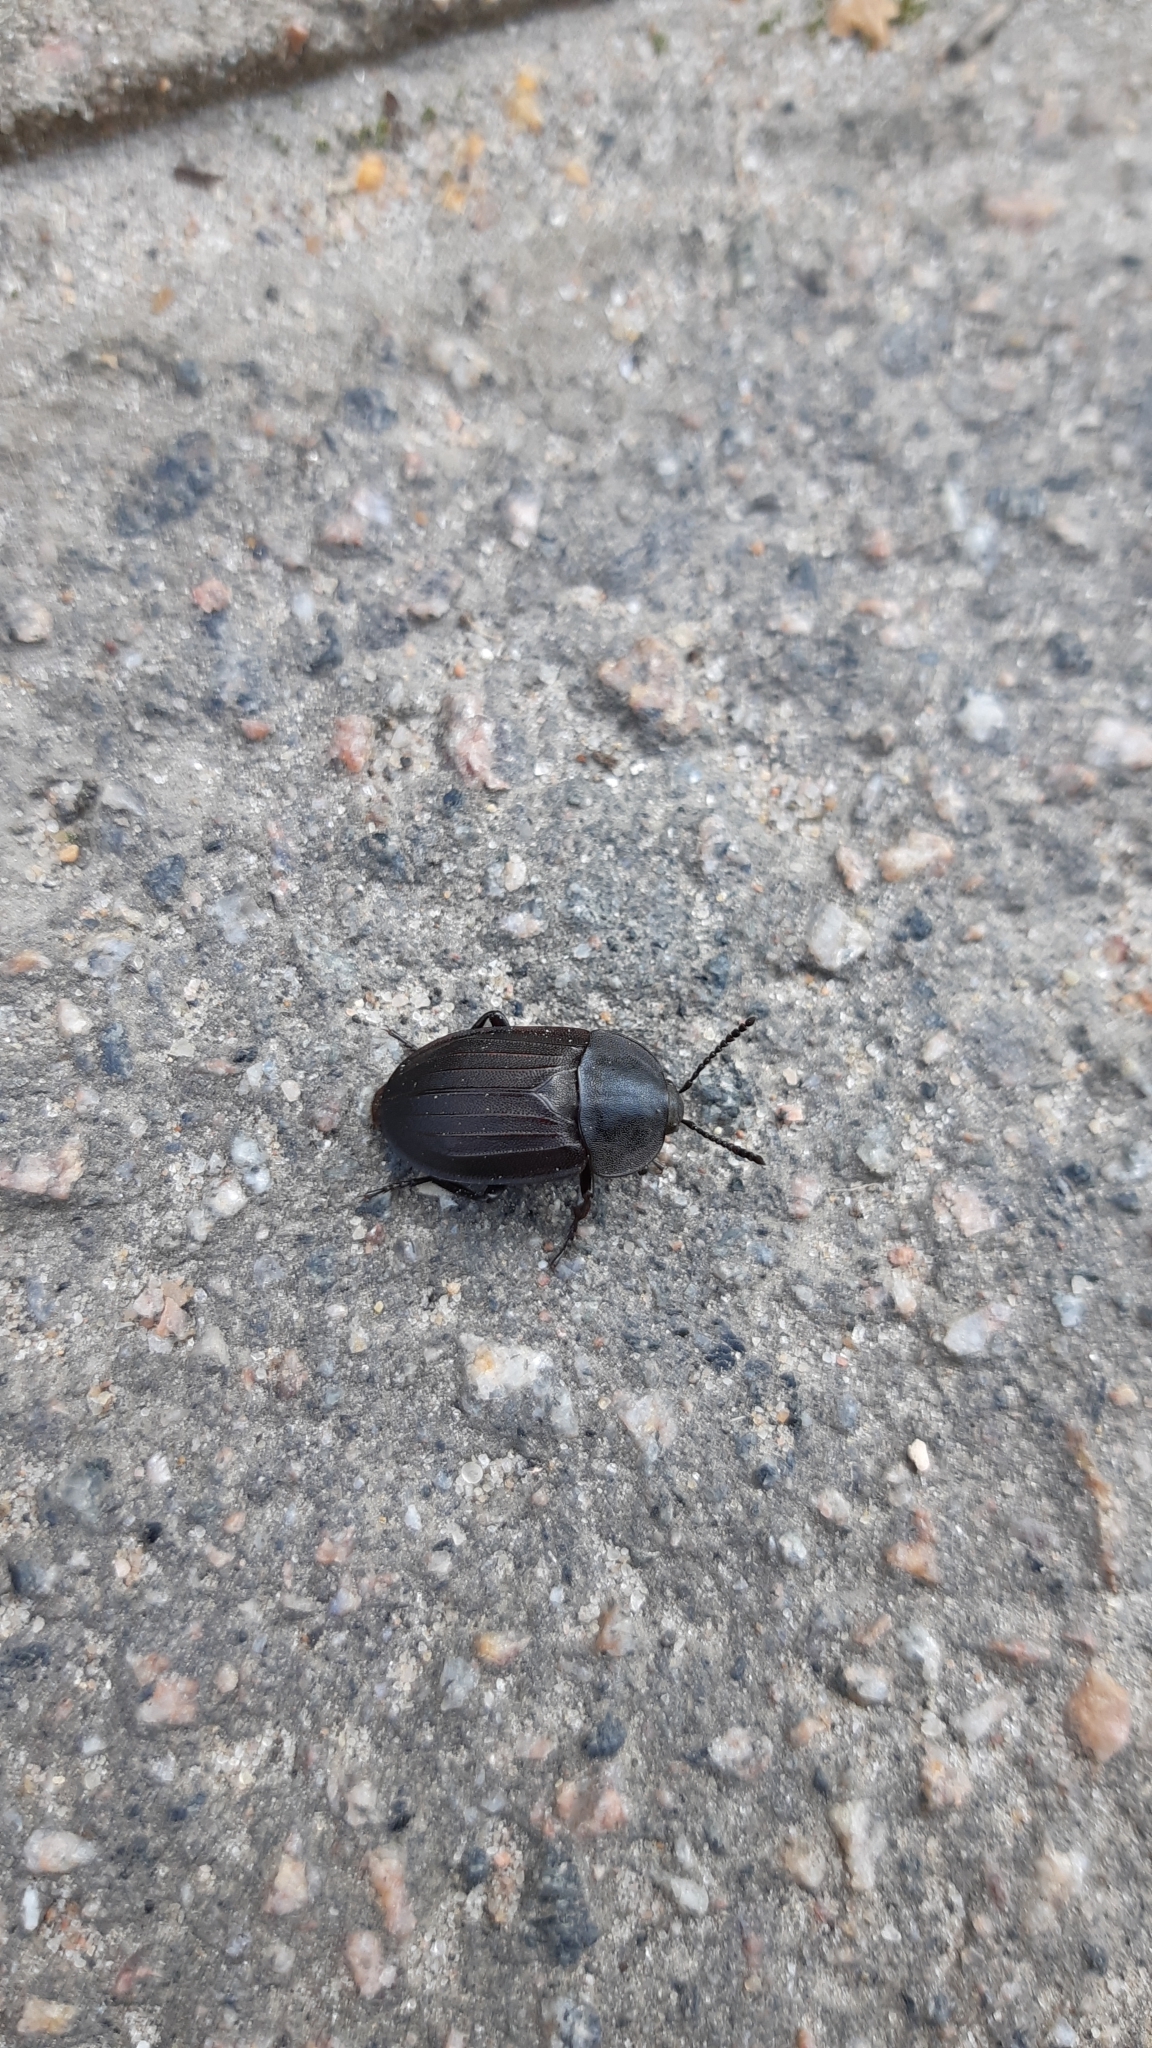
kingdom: Animalia
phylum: Arthropoda
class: Insecta
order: Coleoptera
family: Staphylinidae
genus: Silpha
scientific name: Silpha tristis
